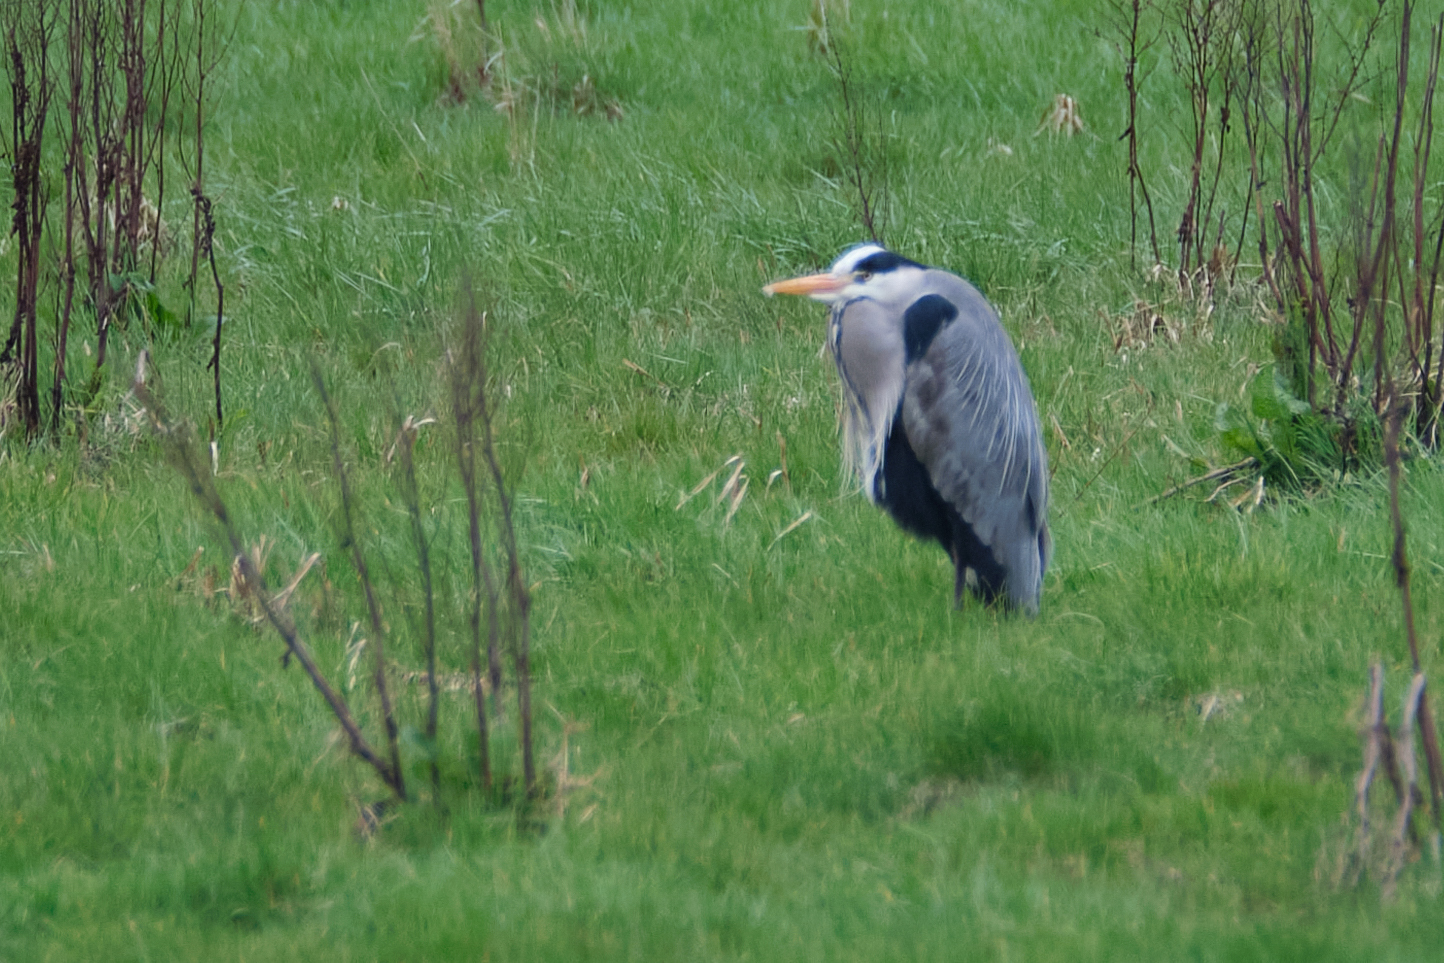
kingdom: Animalia
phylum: Chordata
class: Aves
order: Pelecaniformes
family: Ardeidae
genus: Ardea
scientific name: Ardea cinerea
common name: Grey heron
